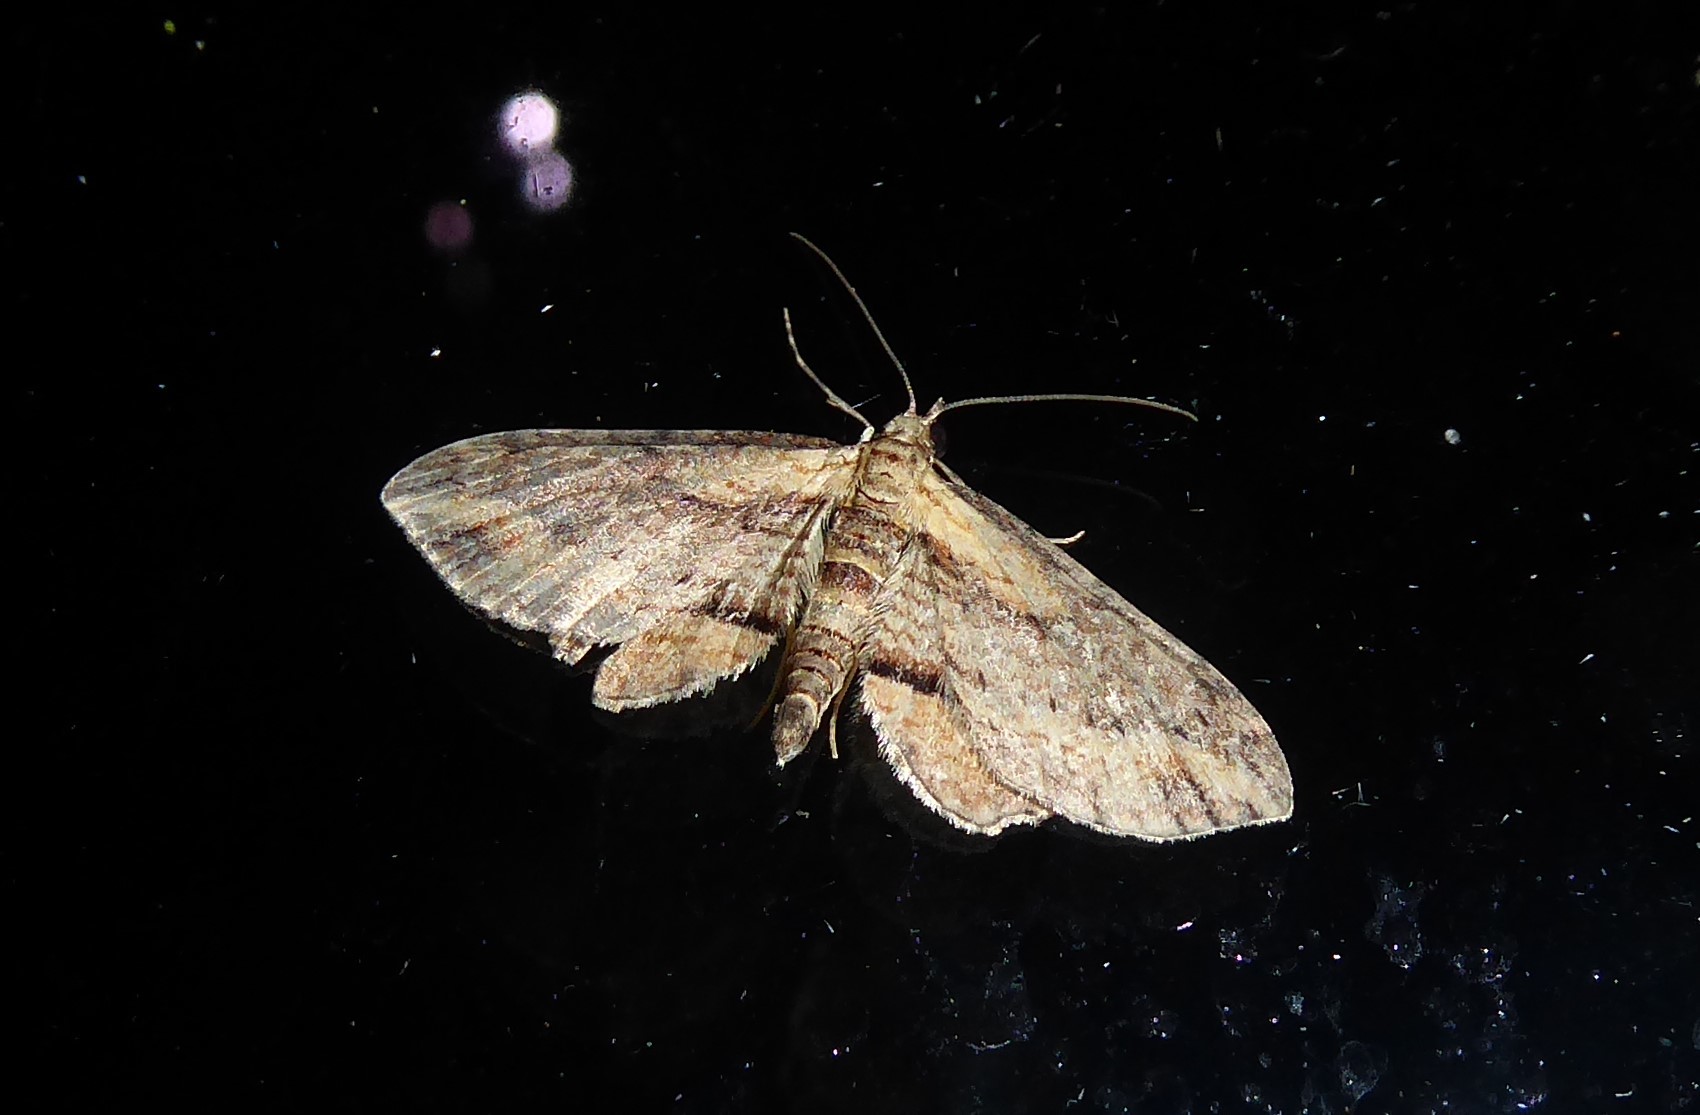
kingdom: Animalia
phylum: Arthropoda
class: Insecta
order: Lepidoptera
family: Geometridae
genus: Chloroclystis
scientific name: Chloroclystis filata
